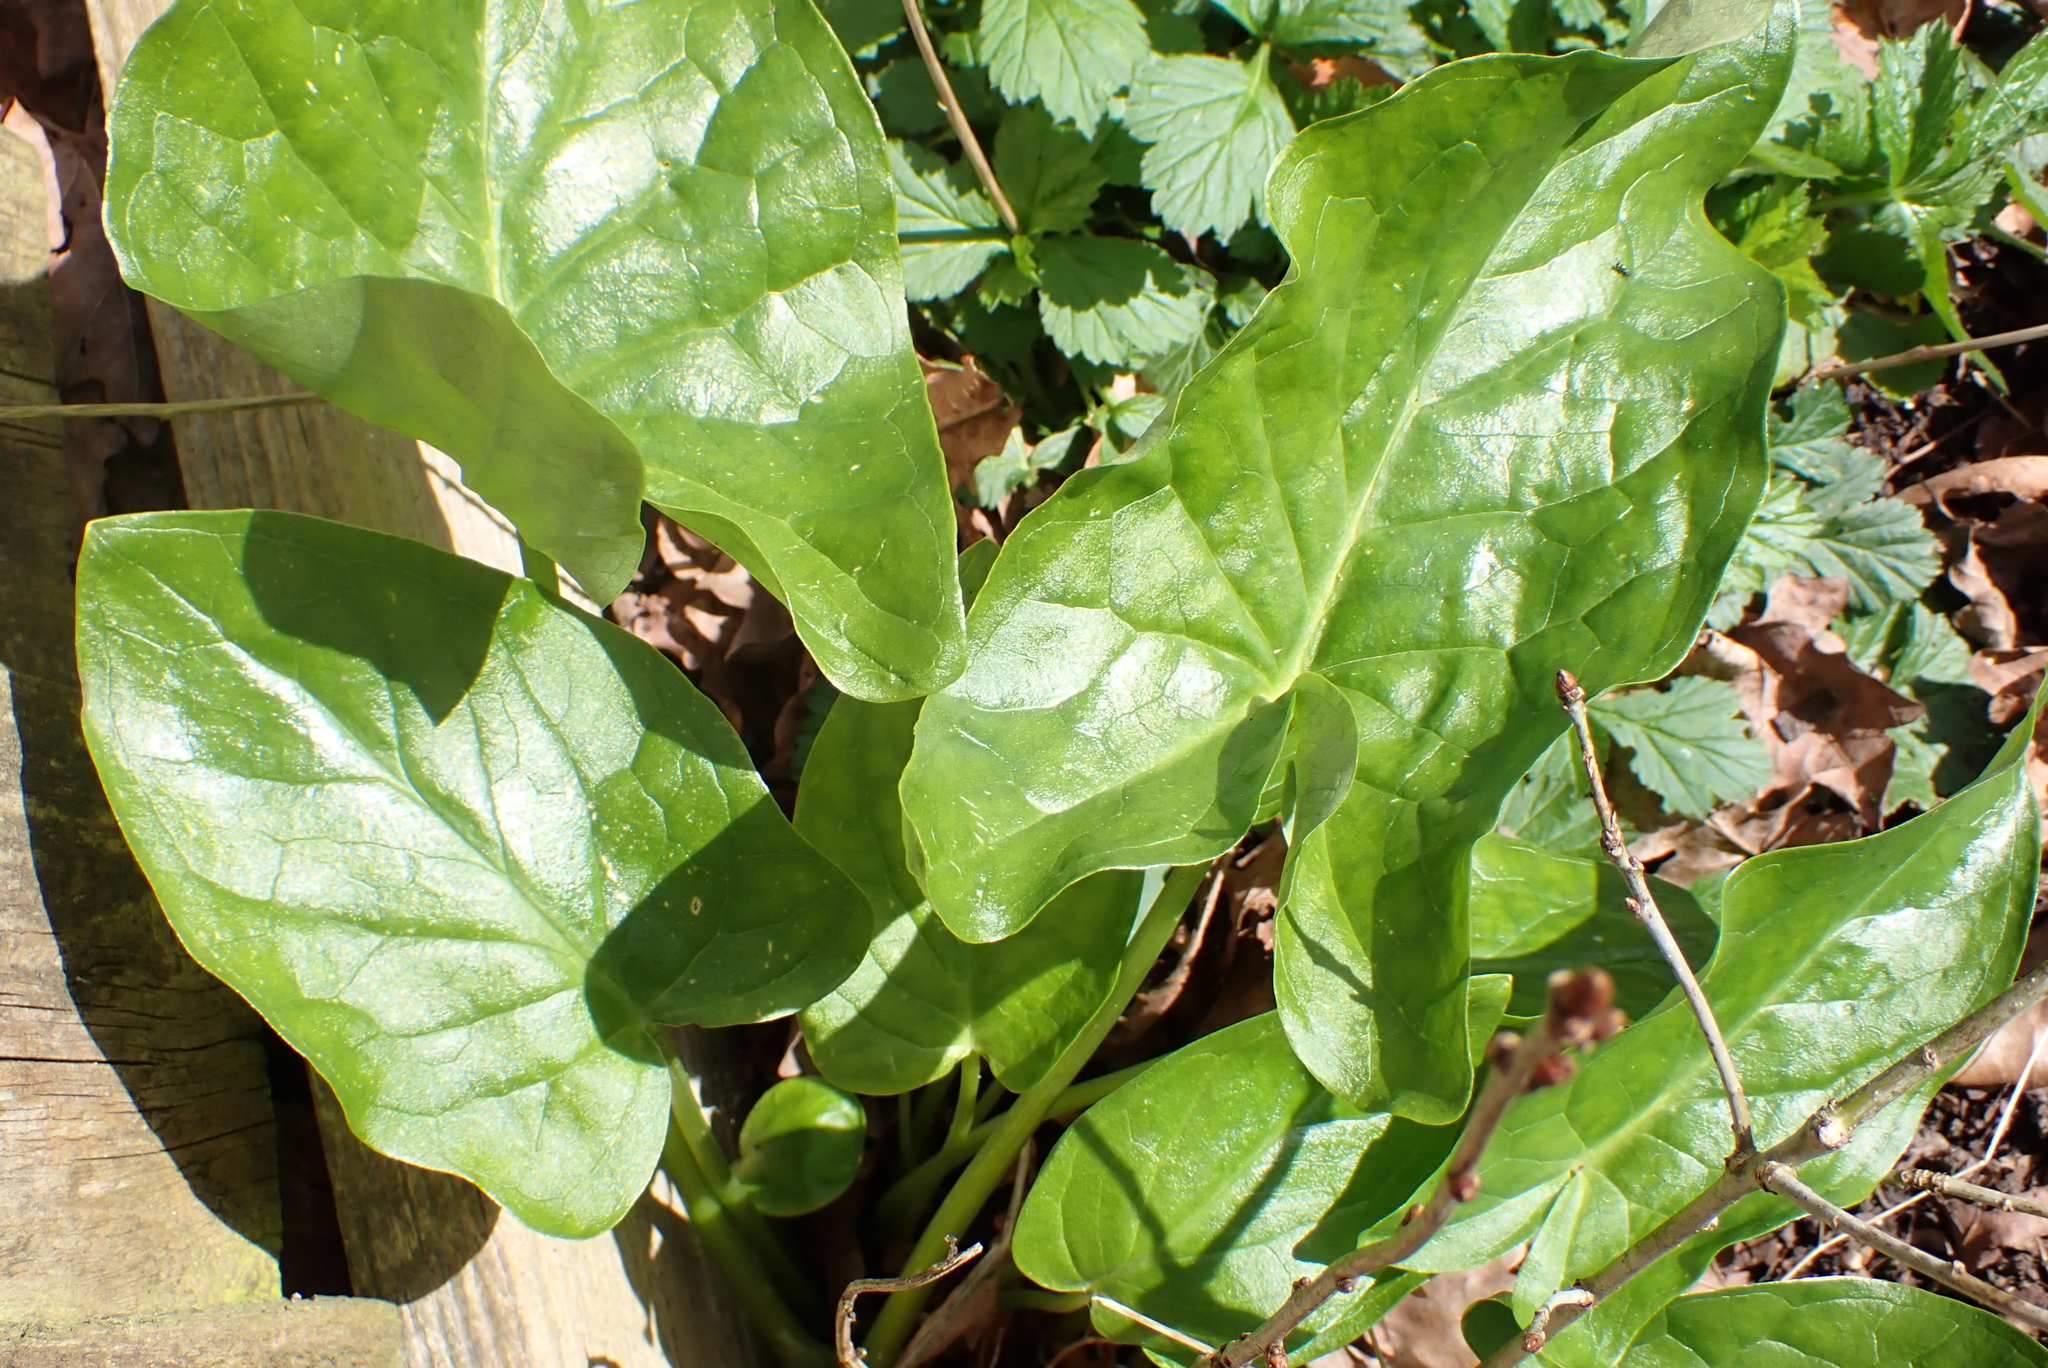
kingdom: Plantae
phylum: Tracheophyta
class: Liliopsida
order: Alismatales
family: Araceae
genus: Arum
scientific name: Arum maculatum
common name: Lords-and-ladies
